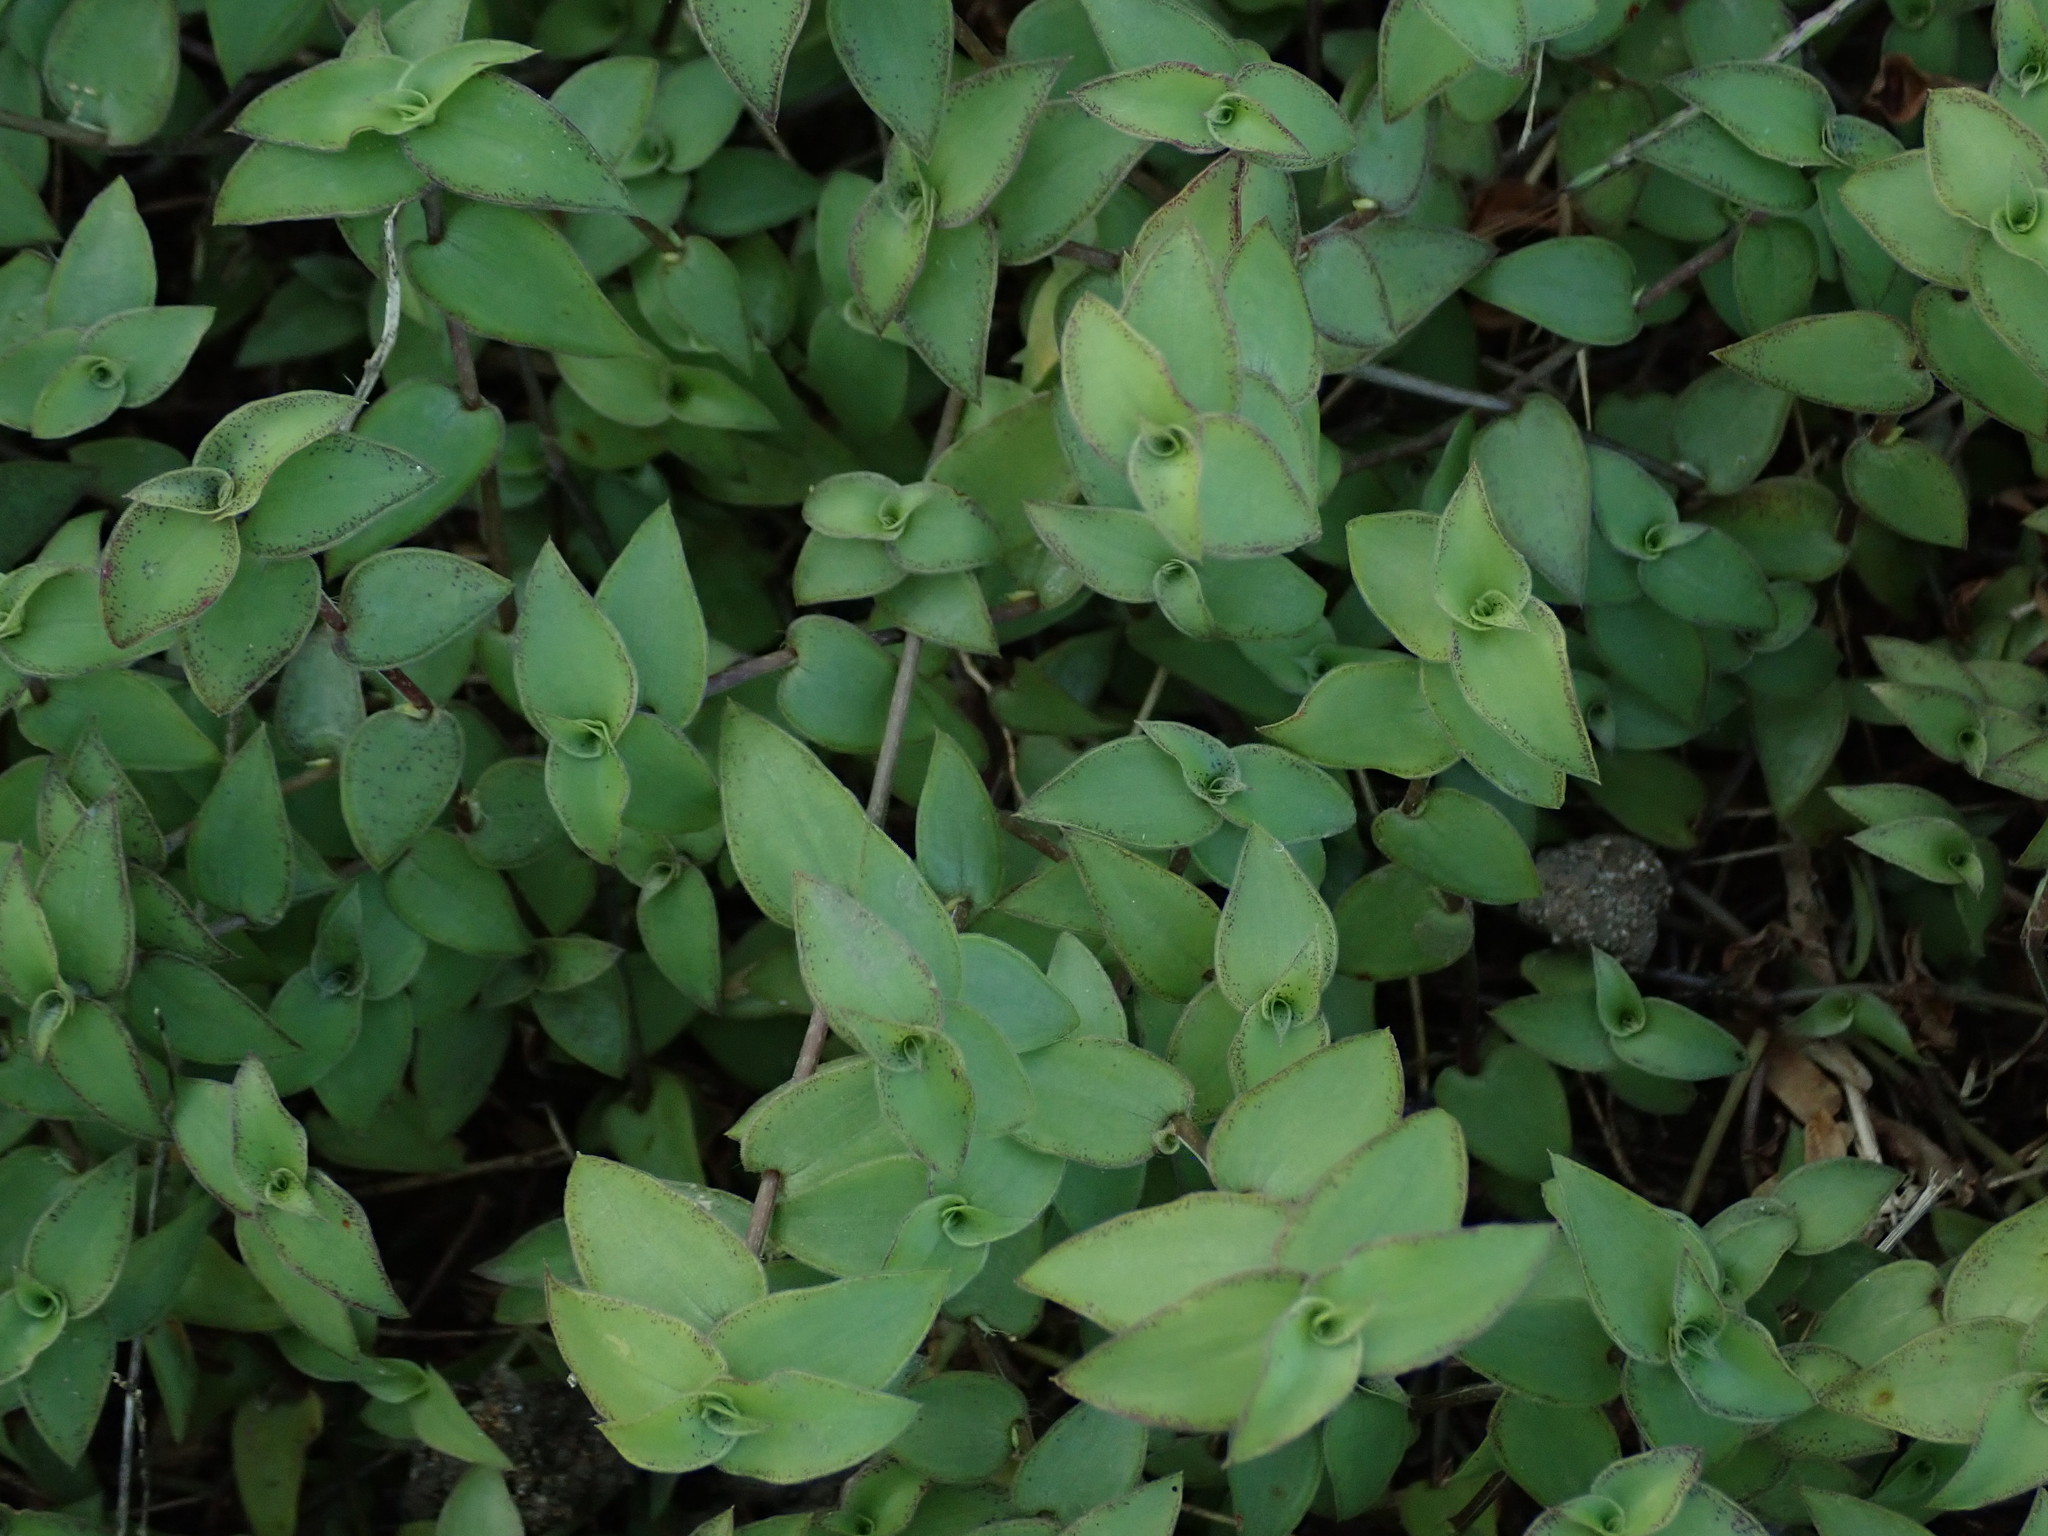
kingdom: Plantae
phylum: Tracheophyta
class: Liliopsida
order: Commelinales
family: Commelinaceae
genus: Callisia
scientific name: Callisia repens
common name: Creeping inchplant
